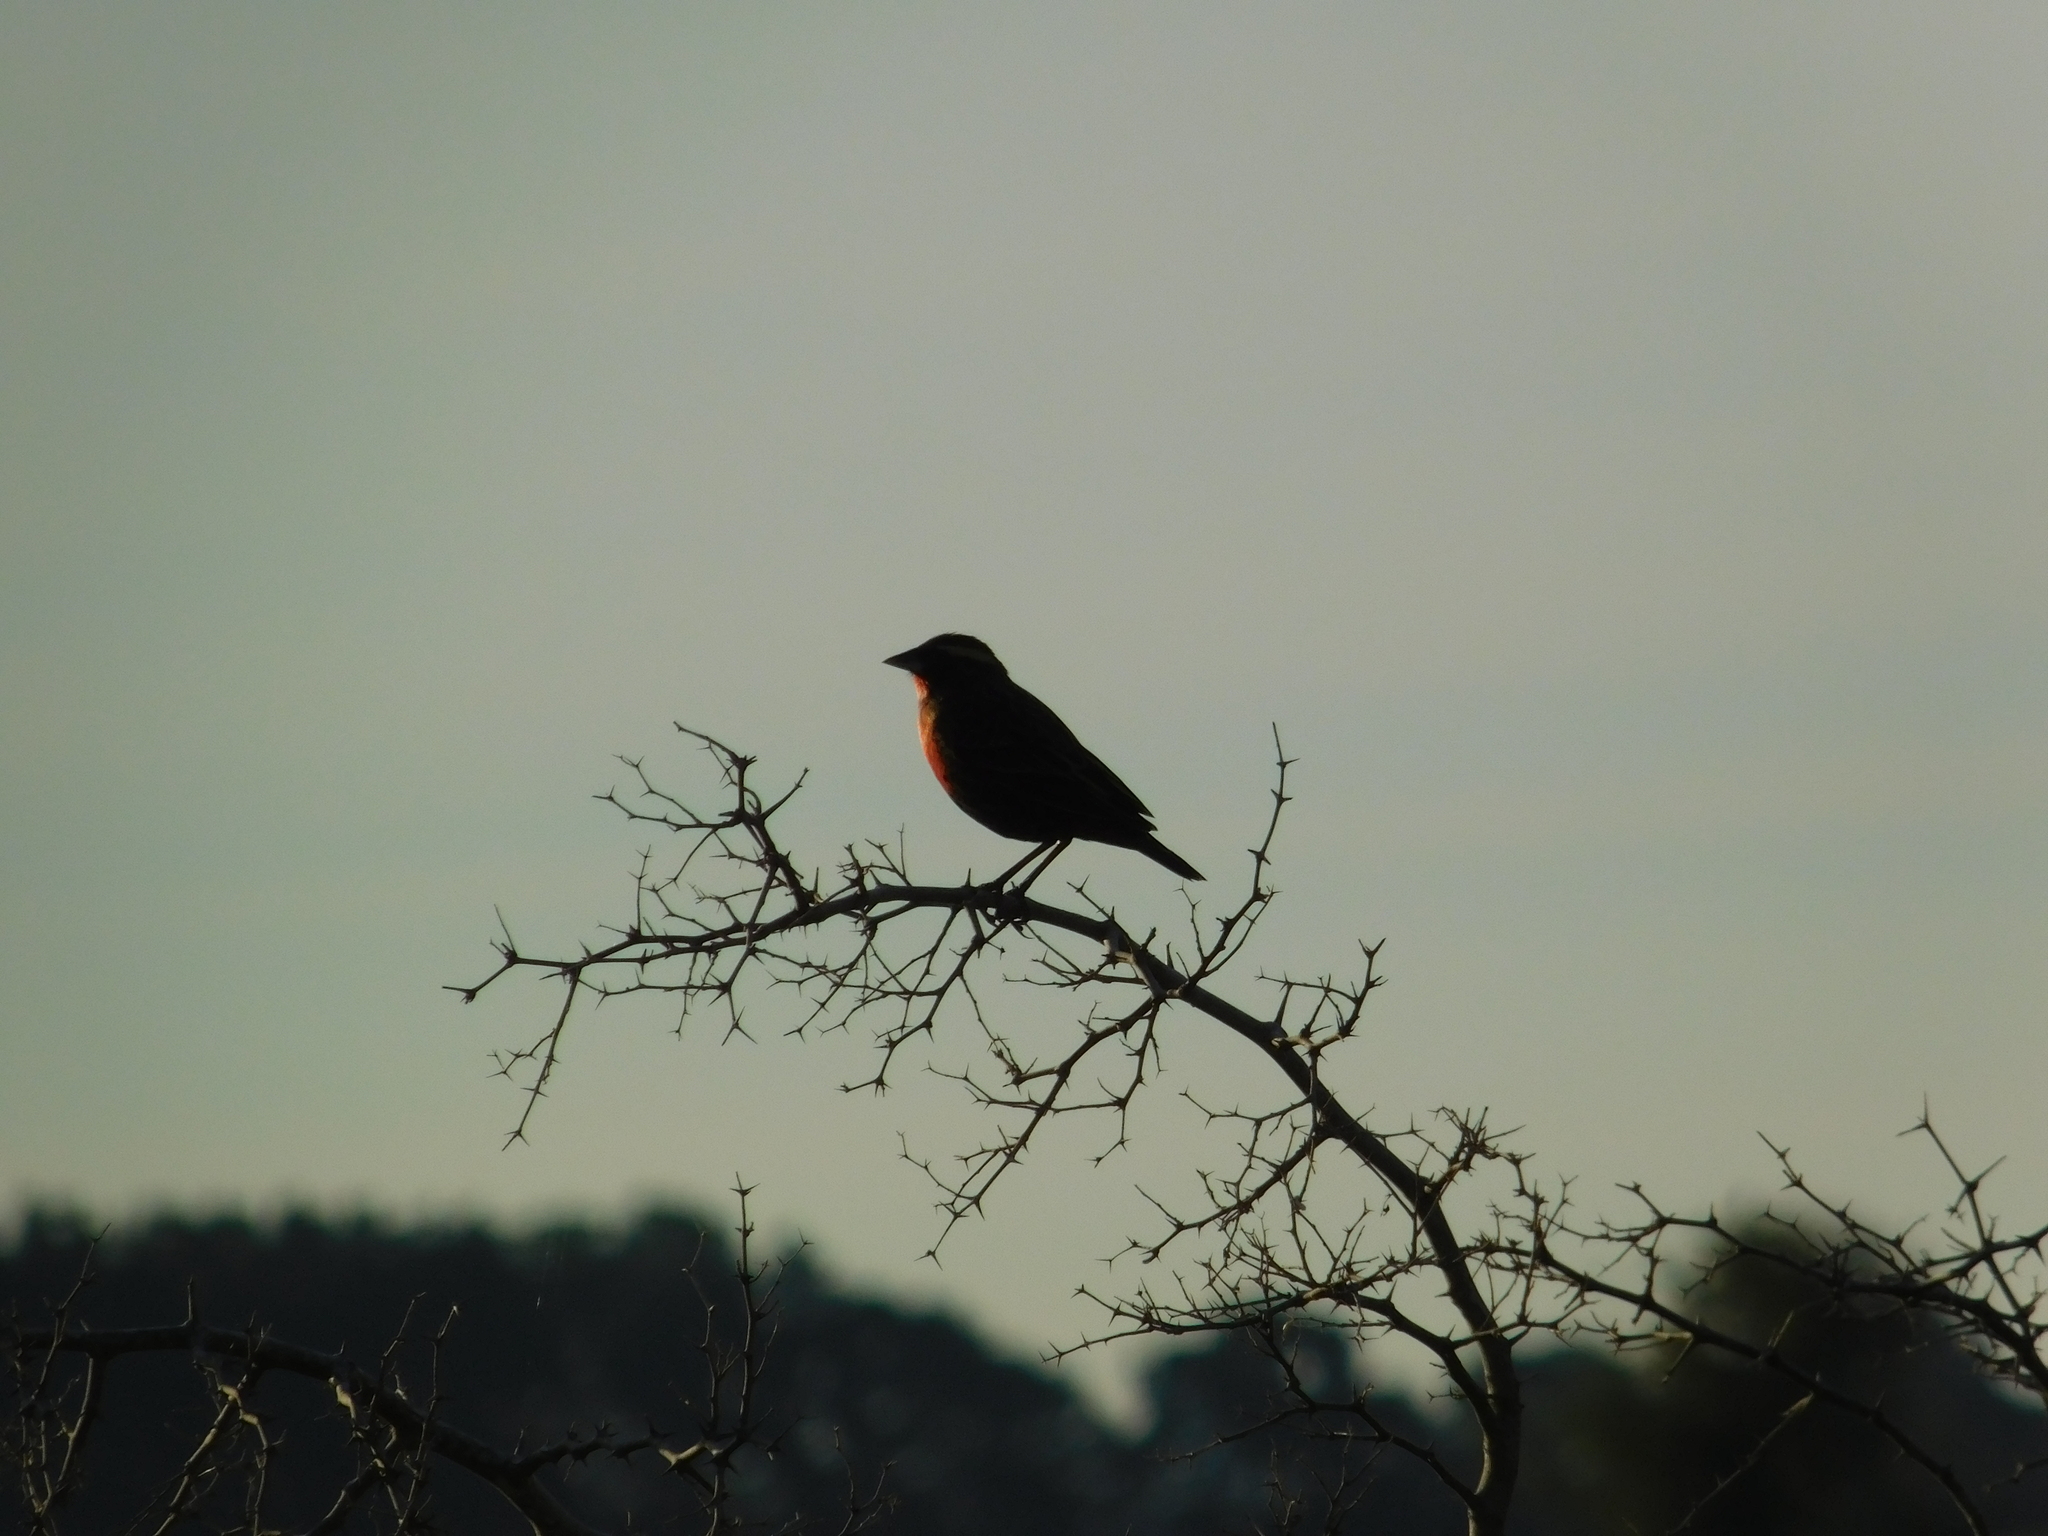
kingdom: Animalia
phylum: Chordata
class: Aves
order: Passeriformes
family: Icteridae
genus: Sturnella
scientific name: Sturnella superciliaris
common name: White-browed blackbird
